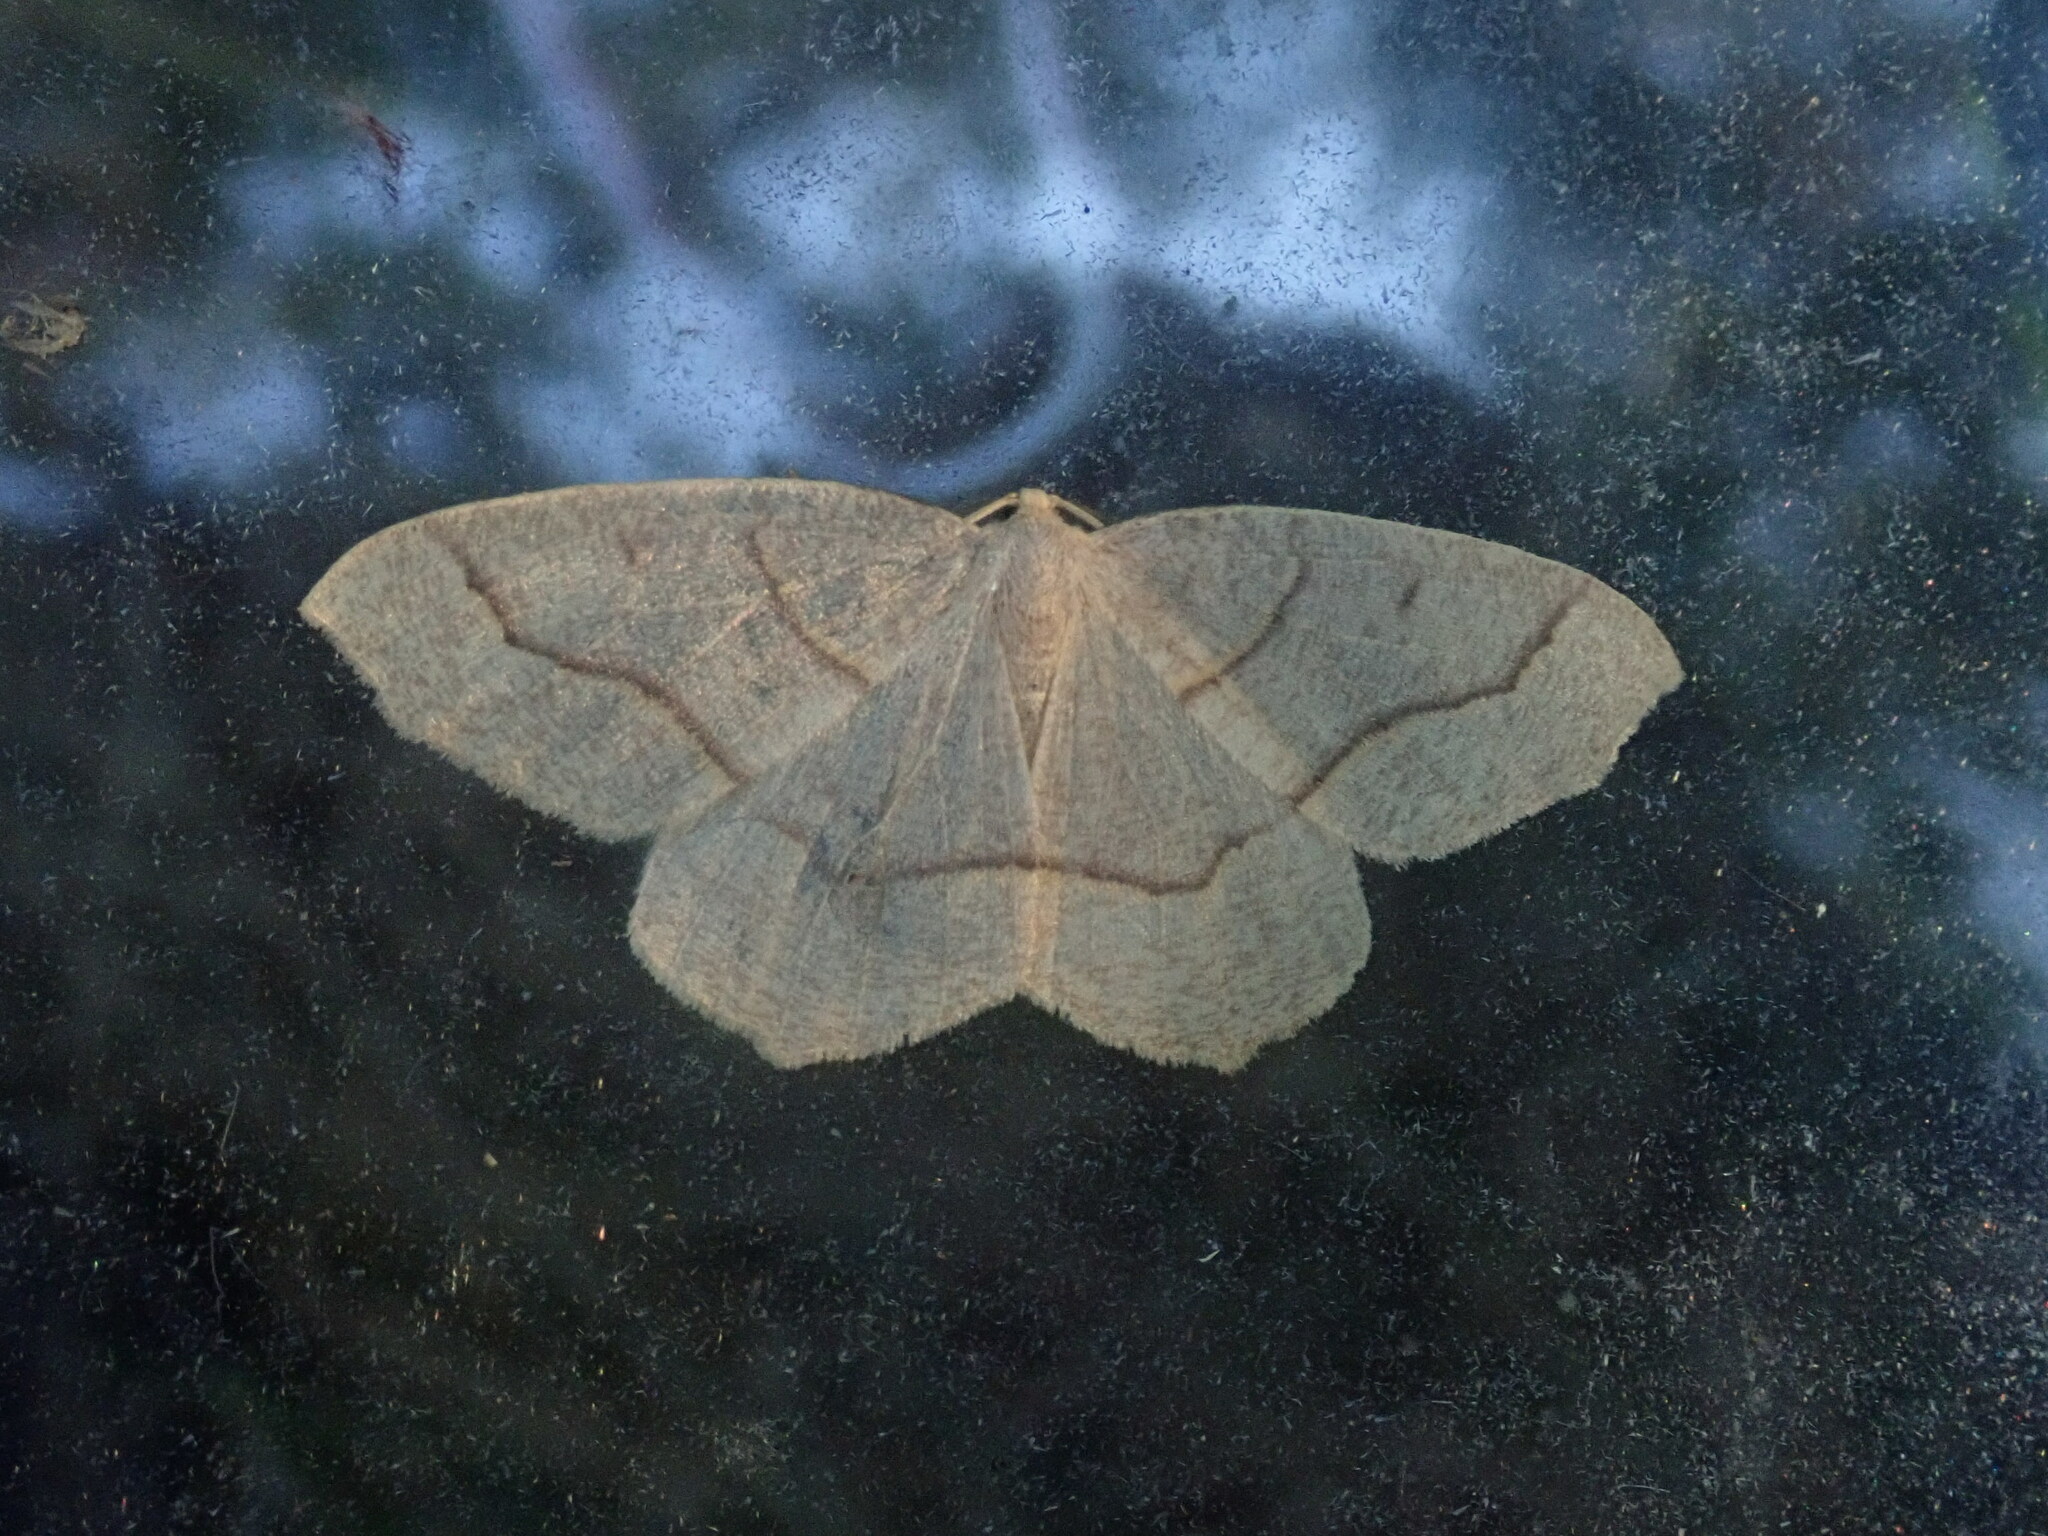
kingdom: Animalia
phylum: Arthropoda
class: Insecta
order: Lepidoptera
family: Geometridae
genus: Lambdina
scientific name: Lambdina fiscellaria
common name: Hemlock looper
